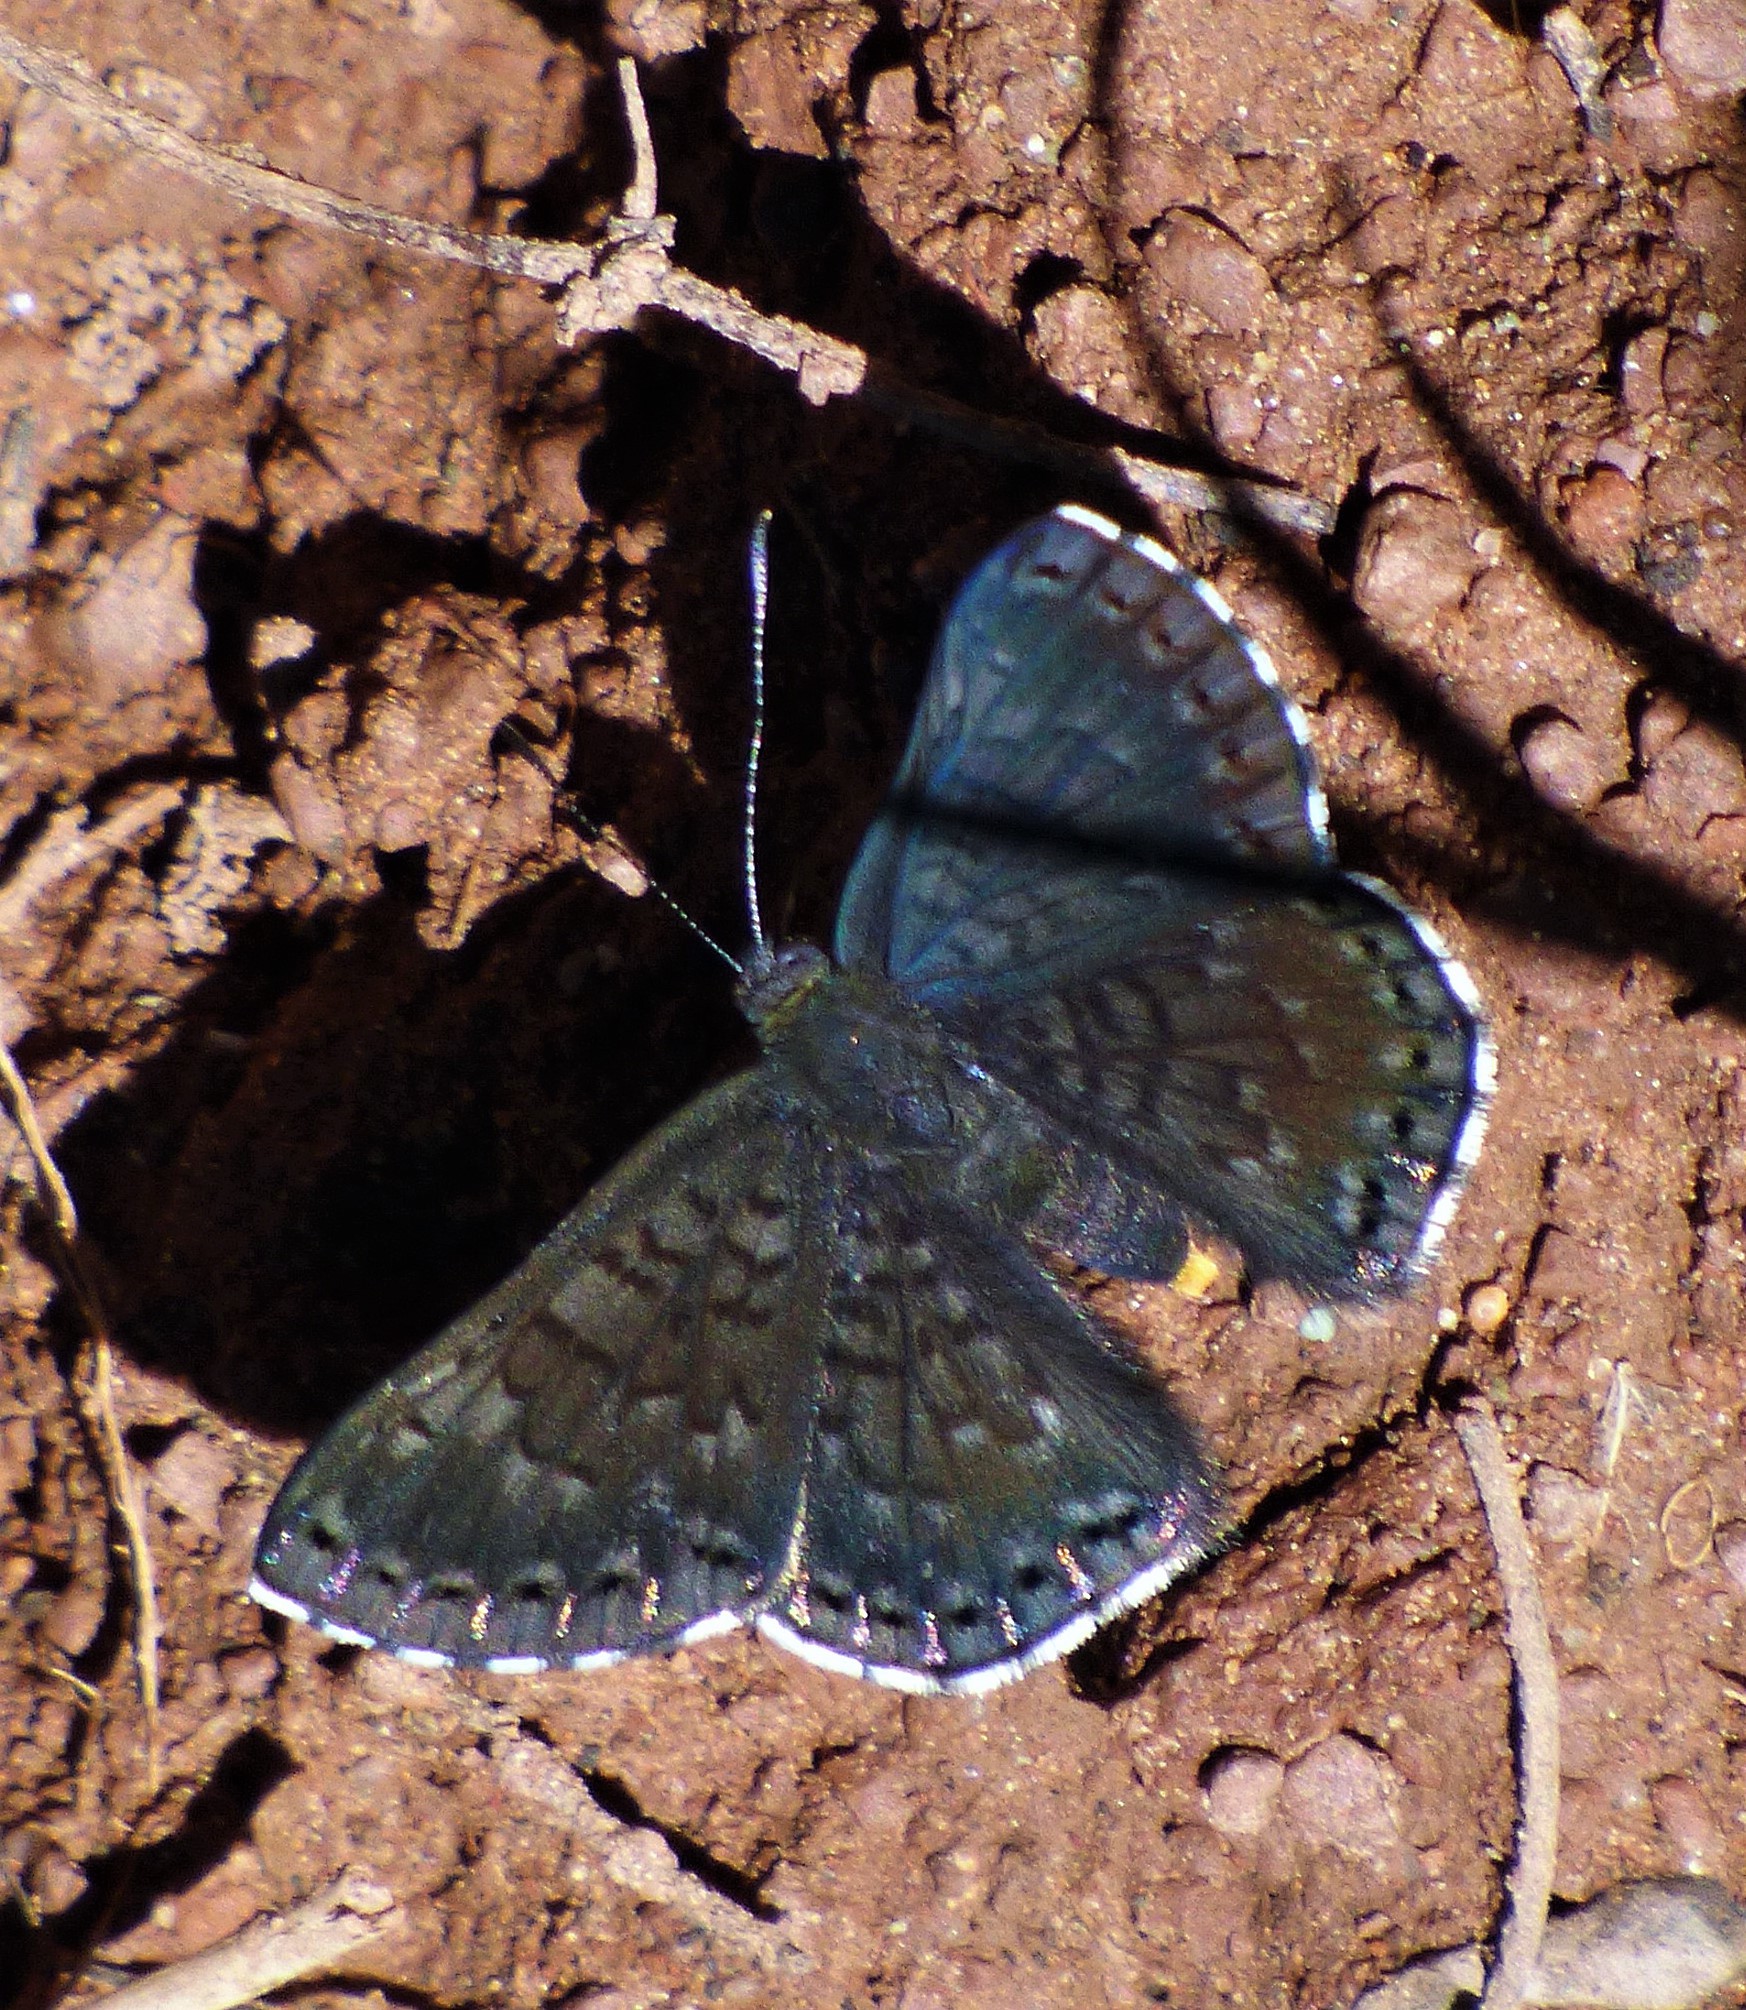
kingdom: Animalia
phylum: Arthropoda
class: Insecta
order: Lepidoptera
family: Riodinidae
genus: Nelone
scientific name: Nelone Exoplisia myrtis
